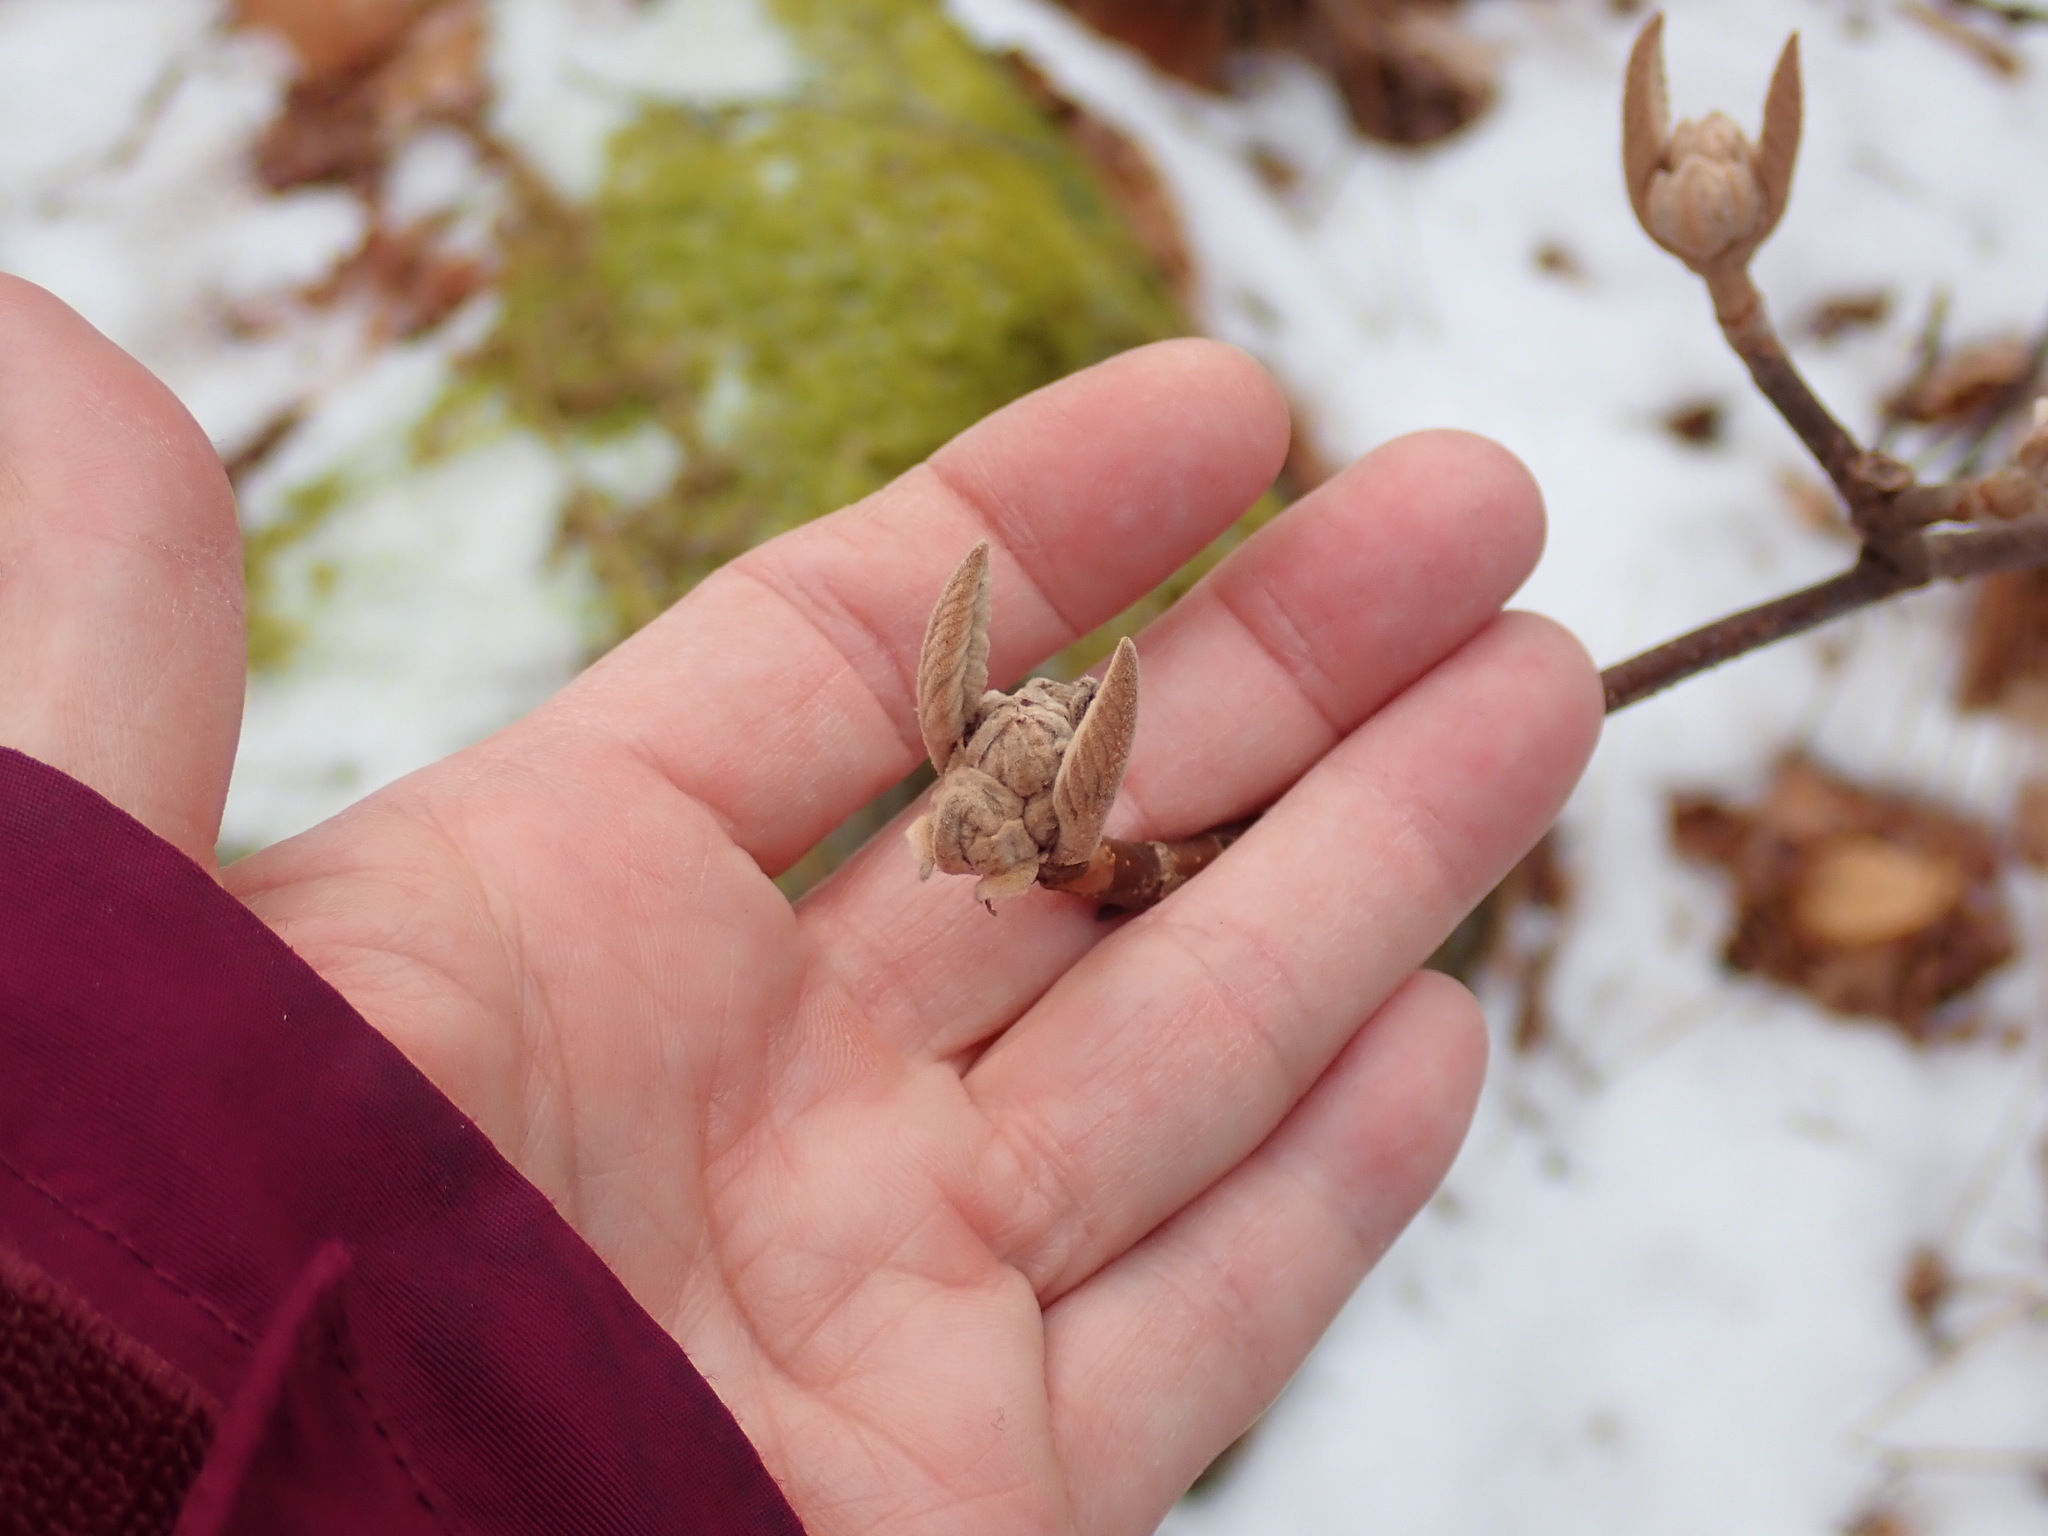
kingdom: Plantae
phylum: Tracheophyta
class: Magnoliopsida
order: Dipsacales
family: Viburnaceae
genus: Viburnum
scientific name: Viburnum lantanoides
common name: Hobblebush
